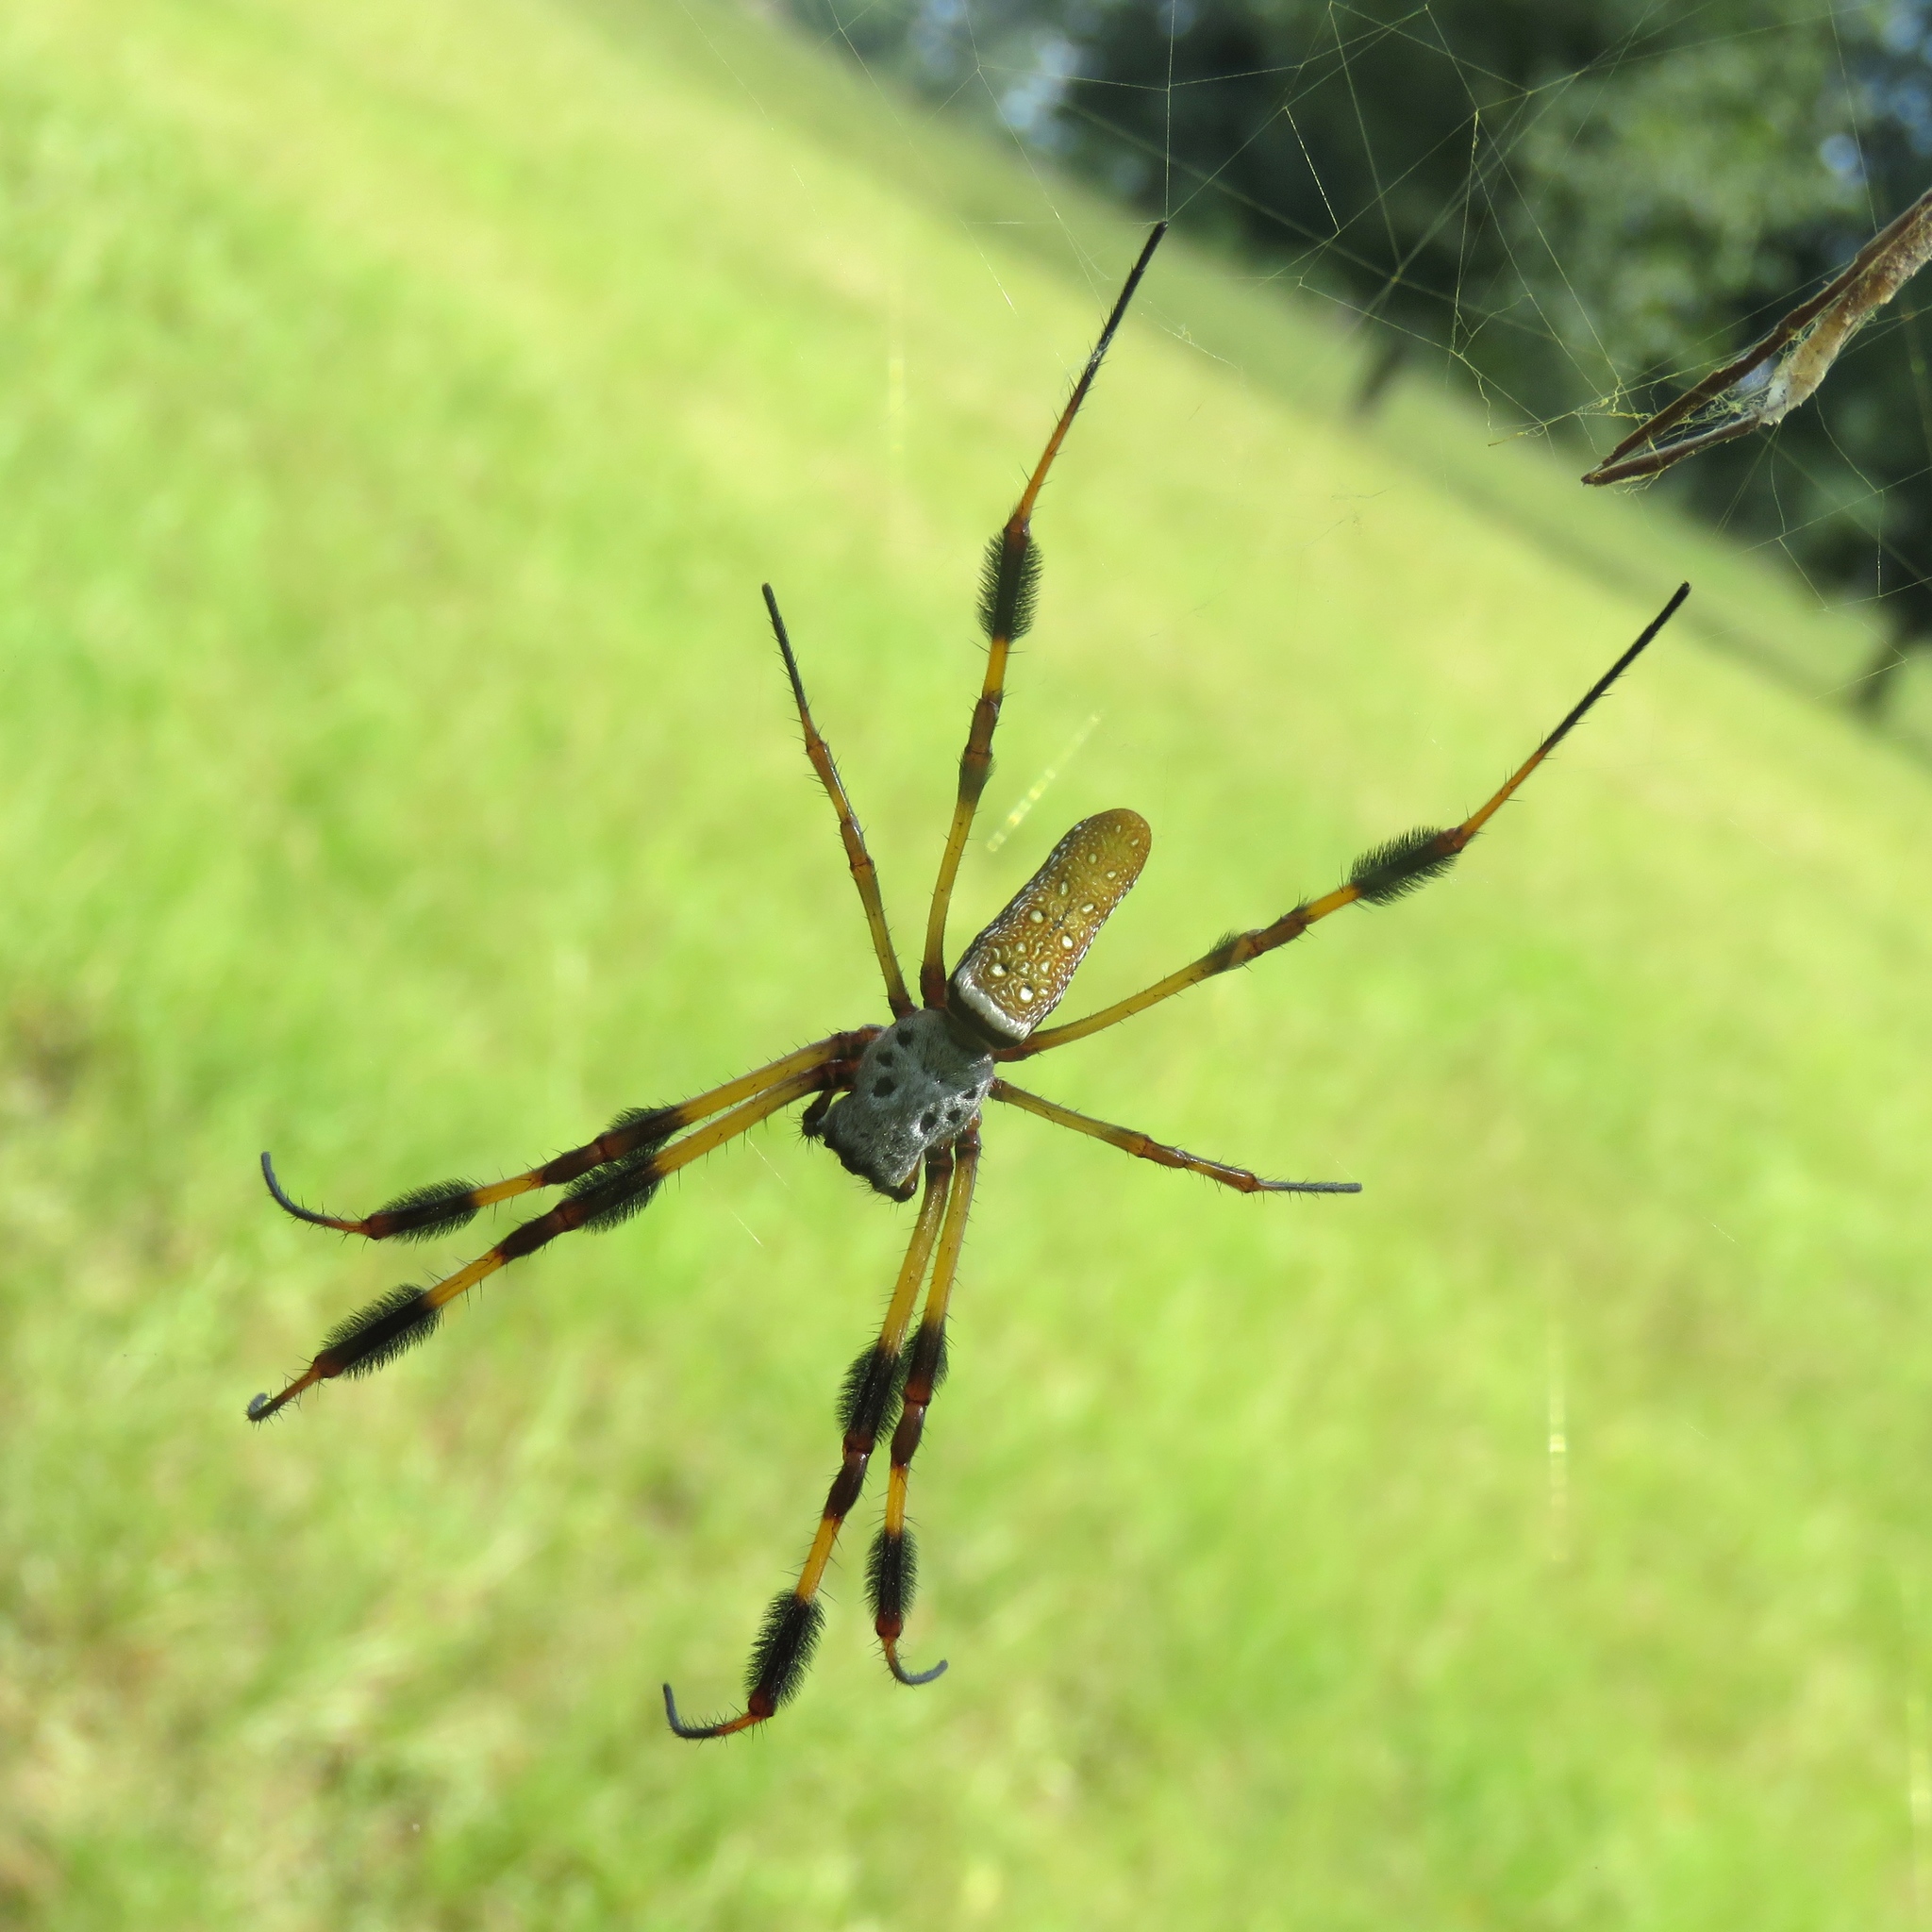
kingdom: Animalia
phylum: Arthropoda
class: Arachnida
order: Araneae
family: Araneidae
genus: Trichonephila
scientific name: Trichonephila clavipes
